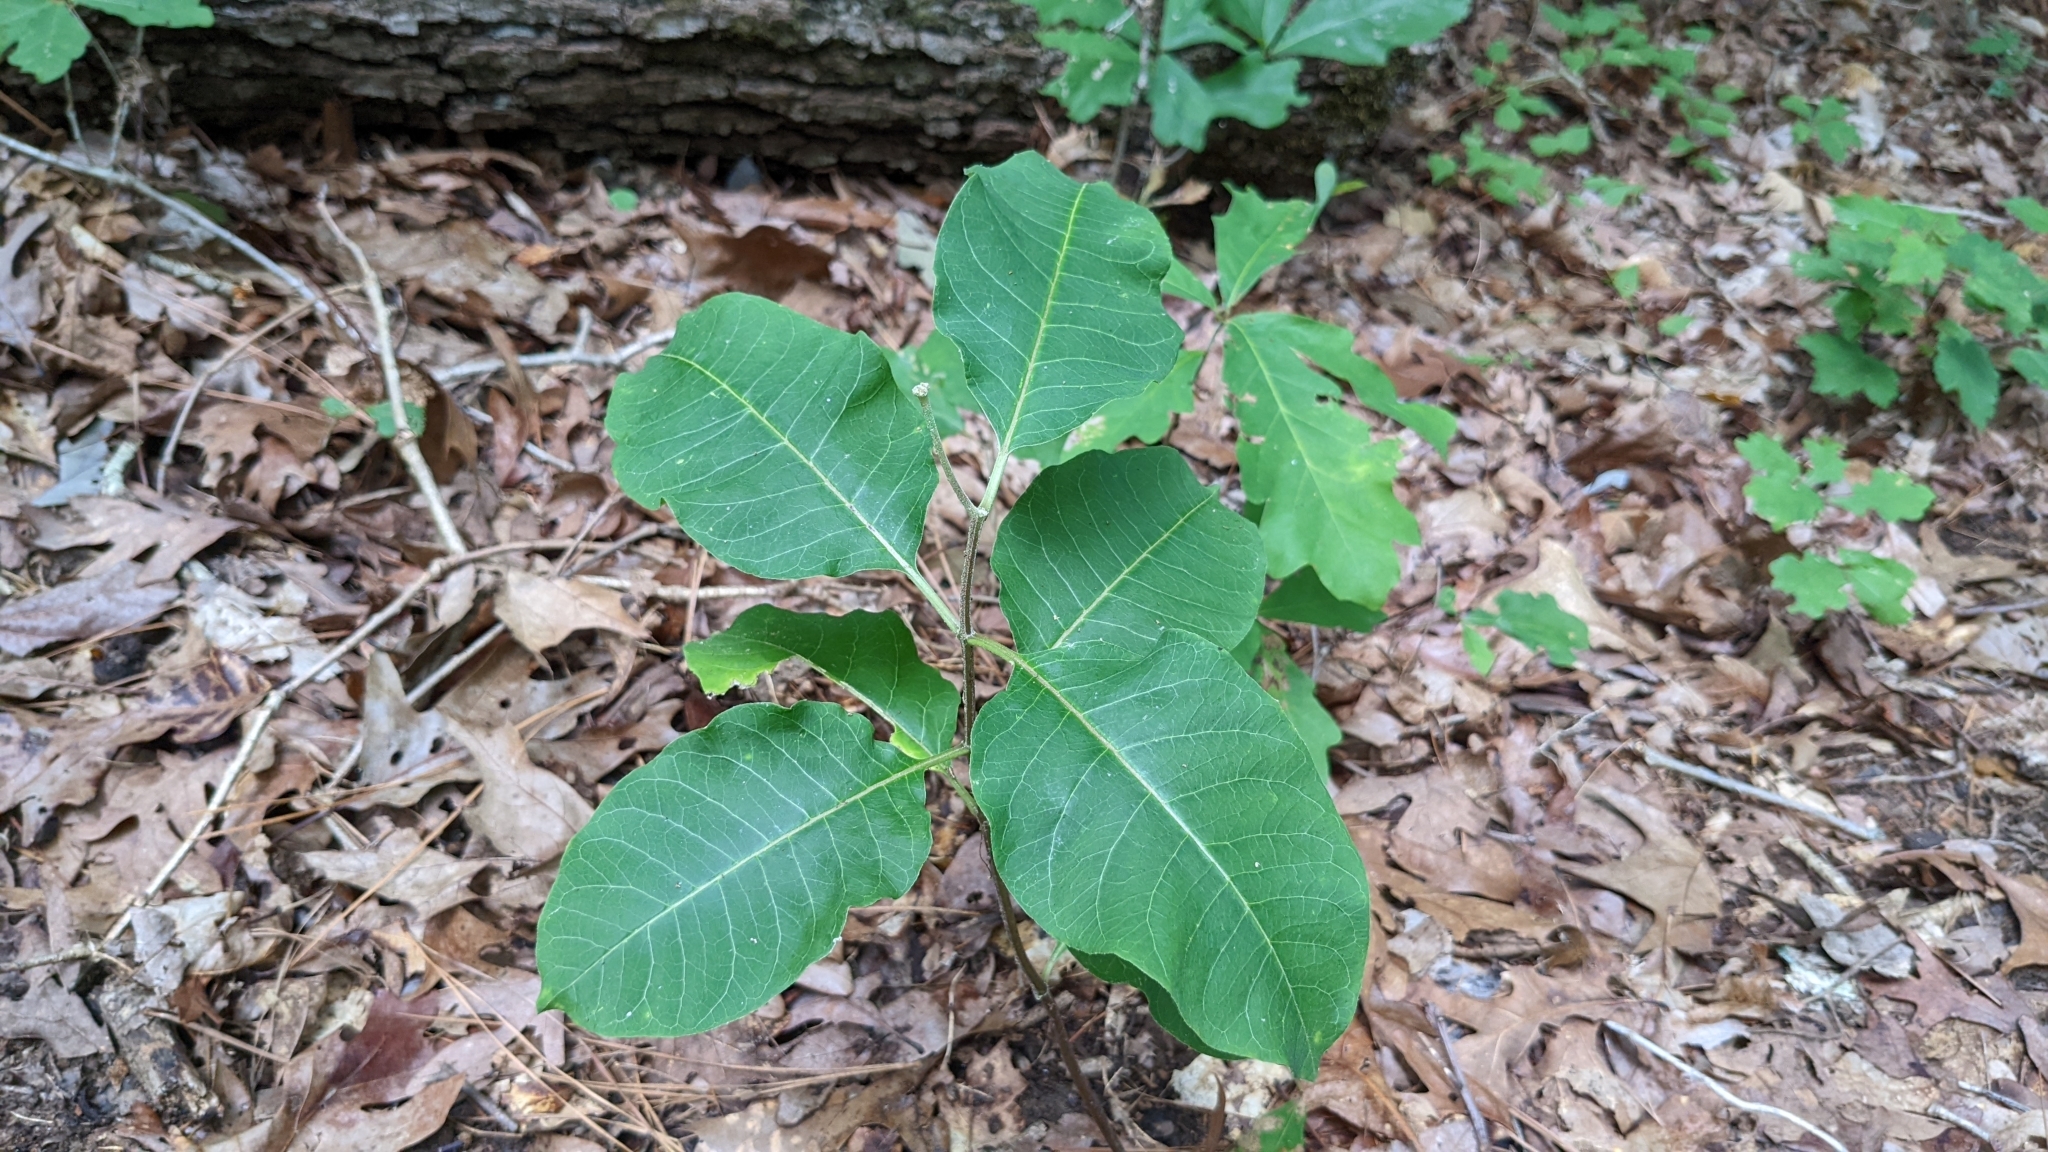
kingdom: Plantae
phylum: Tracheophyta
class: Magnoliopsida
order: Gentianales
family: Apocynaceae
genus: Asclepias
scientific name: Asclepias variegata
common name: Variegated milkweed
